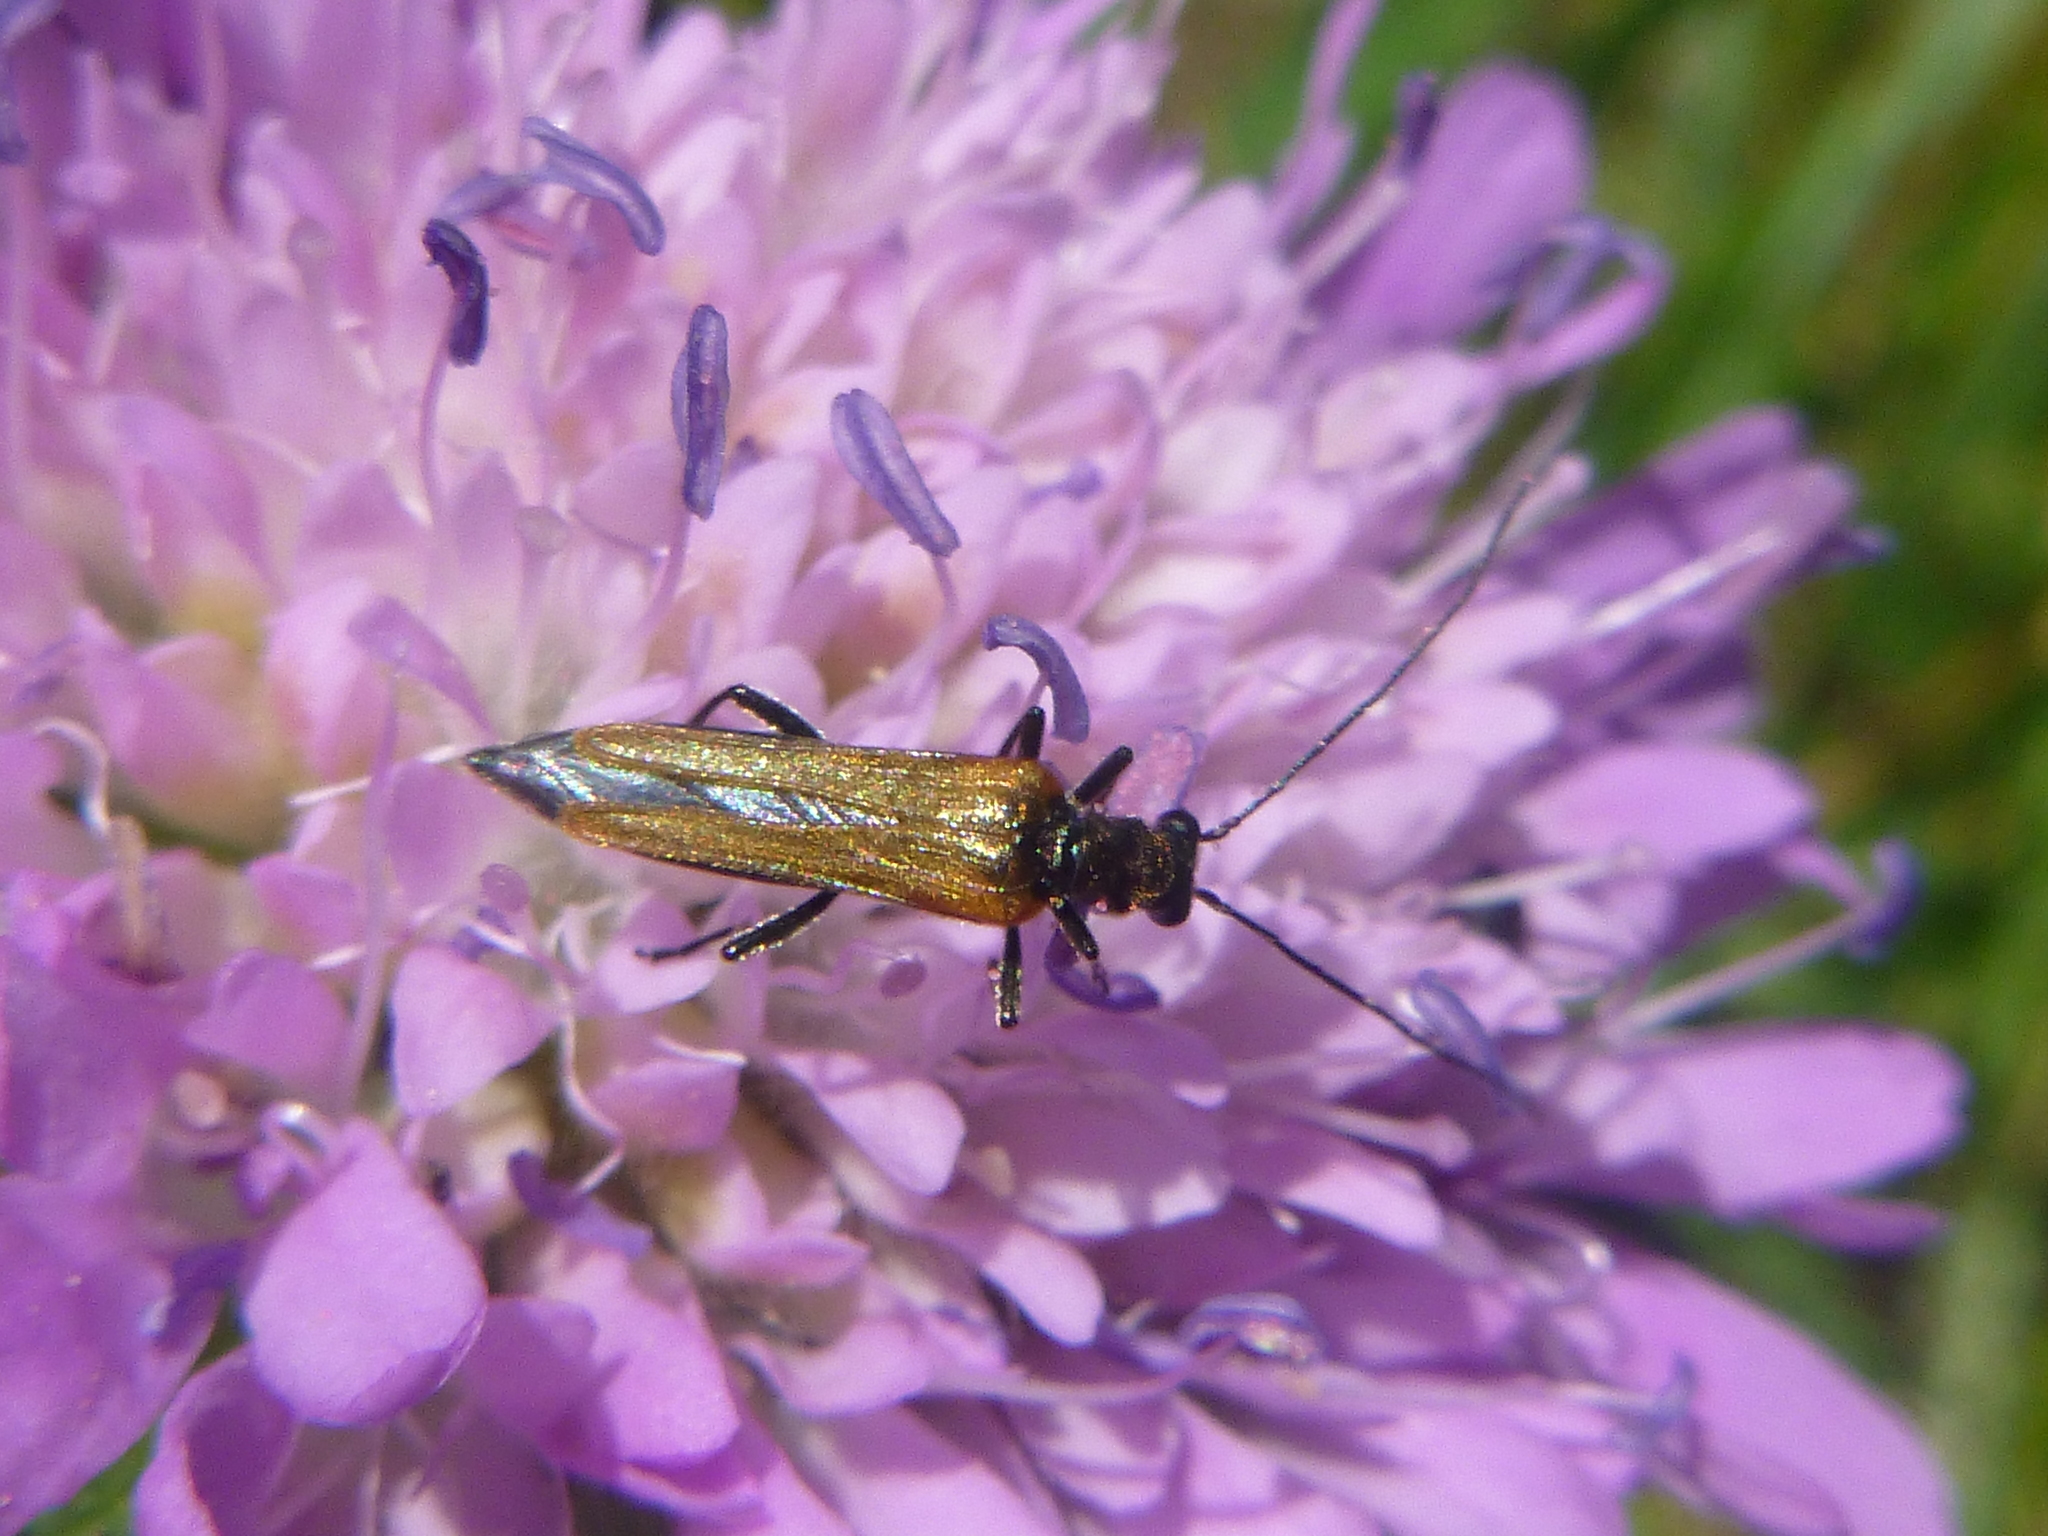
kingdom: Animalia
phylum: Arthropoda
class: Insecta
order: Coleoptera
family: Oedemeridae
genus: Oedemera
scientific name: Oedemera femorata
